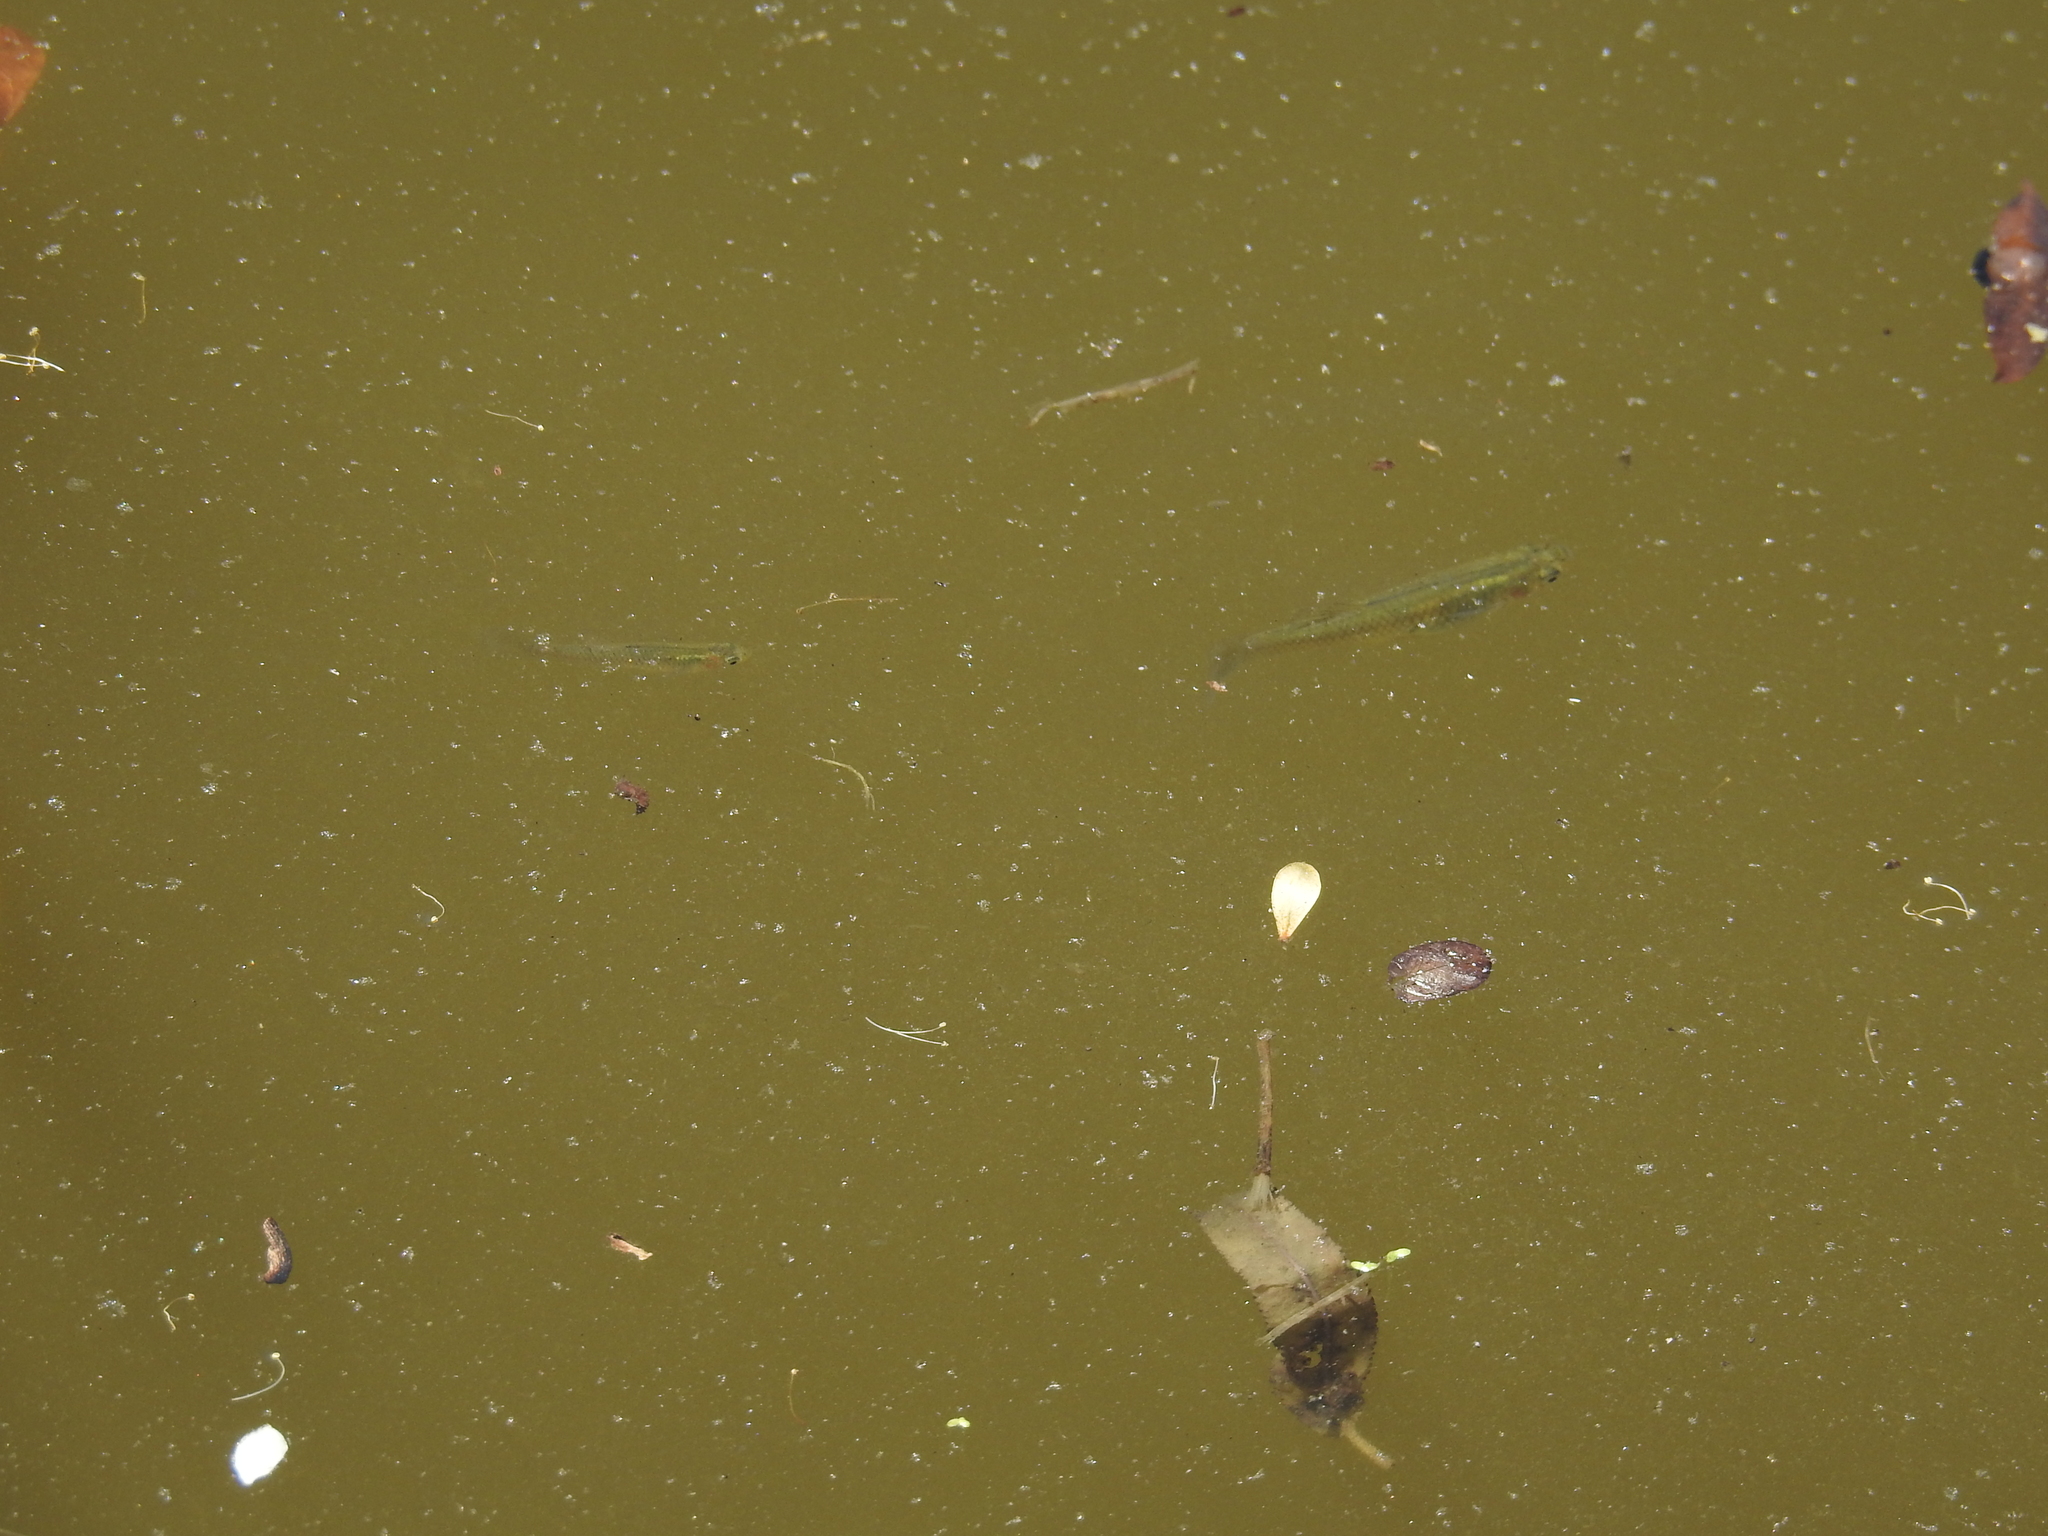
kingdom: Animalia
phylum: Chordata
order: Cyprinodontiformes
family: Poeciliidae
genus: Gambusia
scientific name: Gambusia affinis
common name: Mosquitofish
